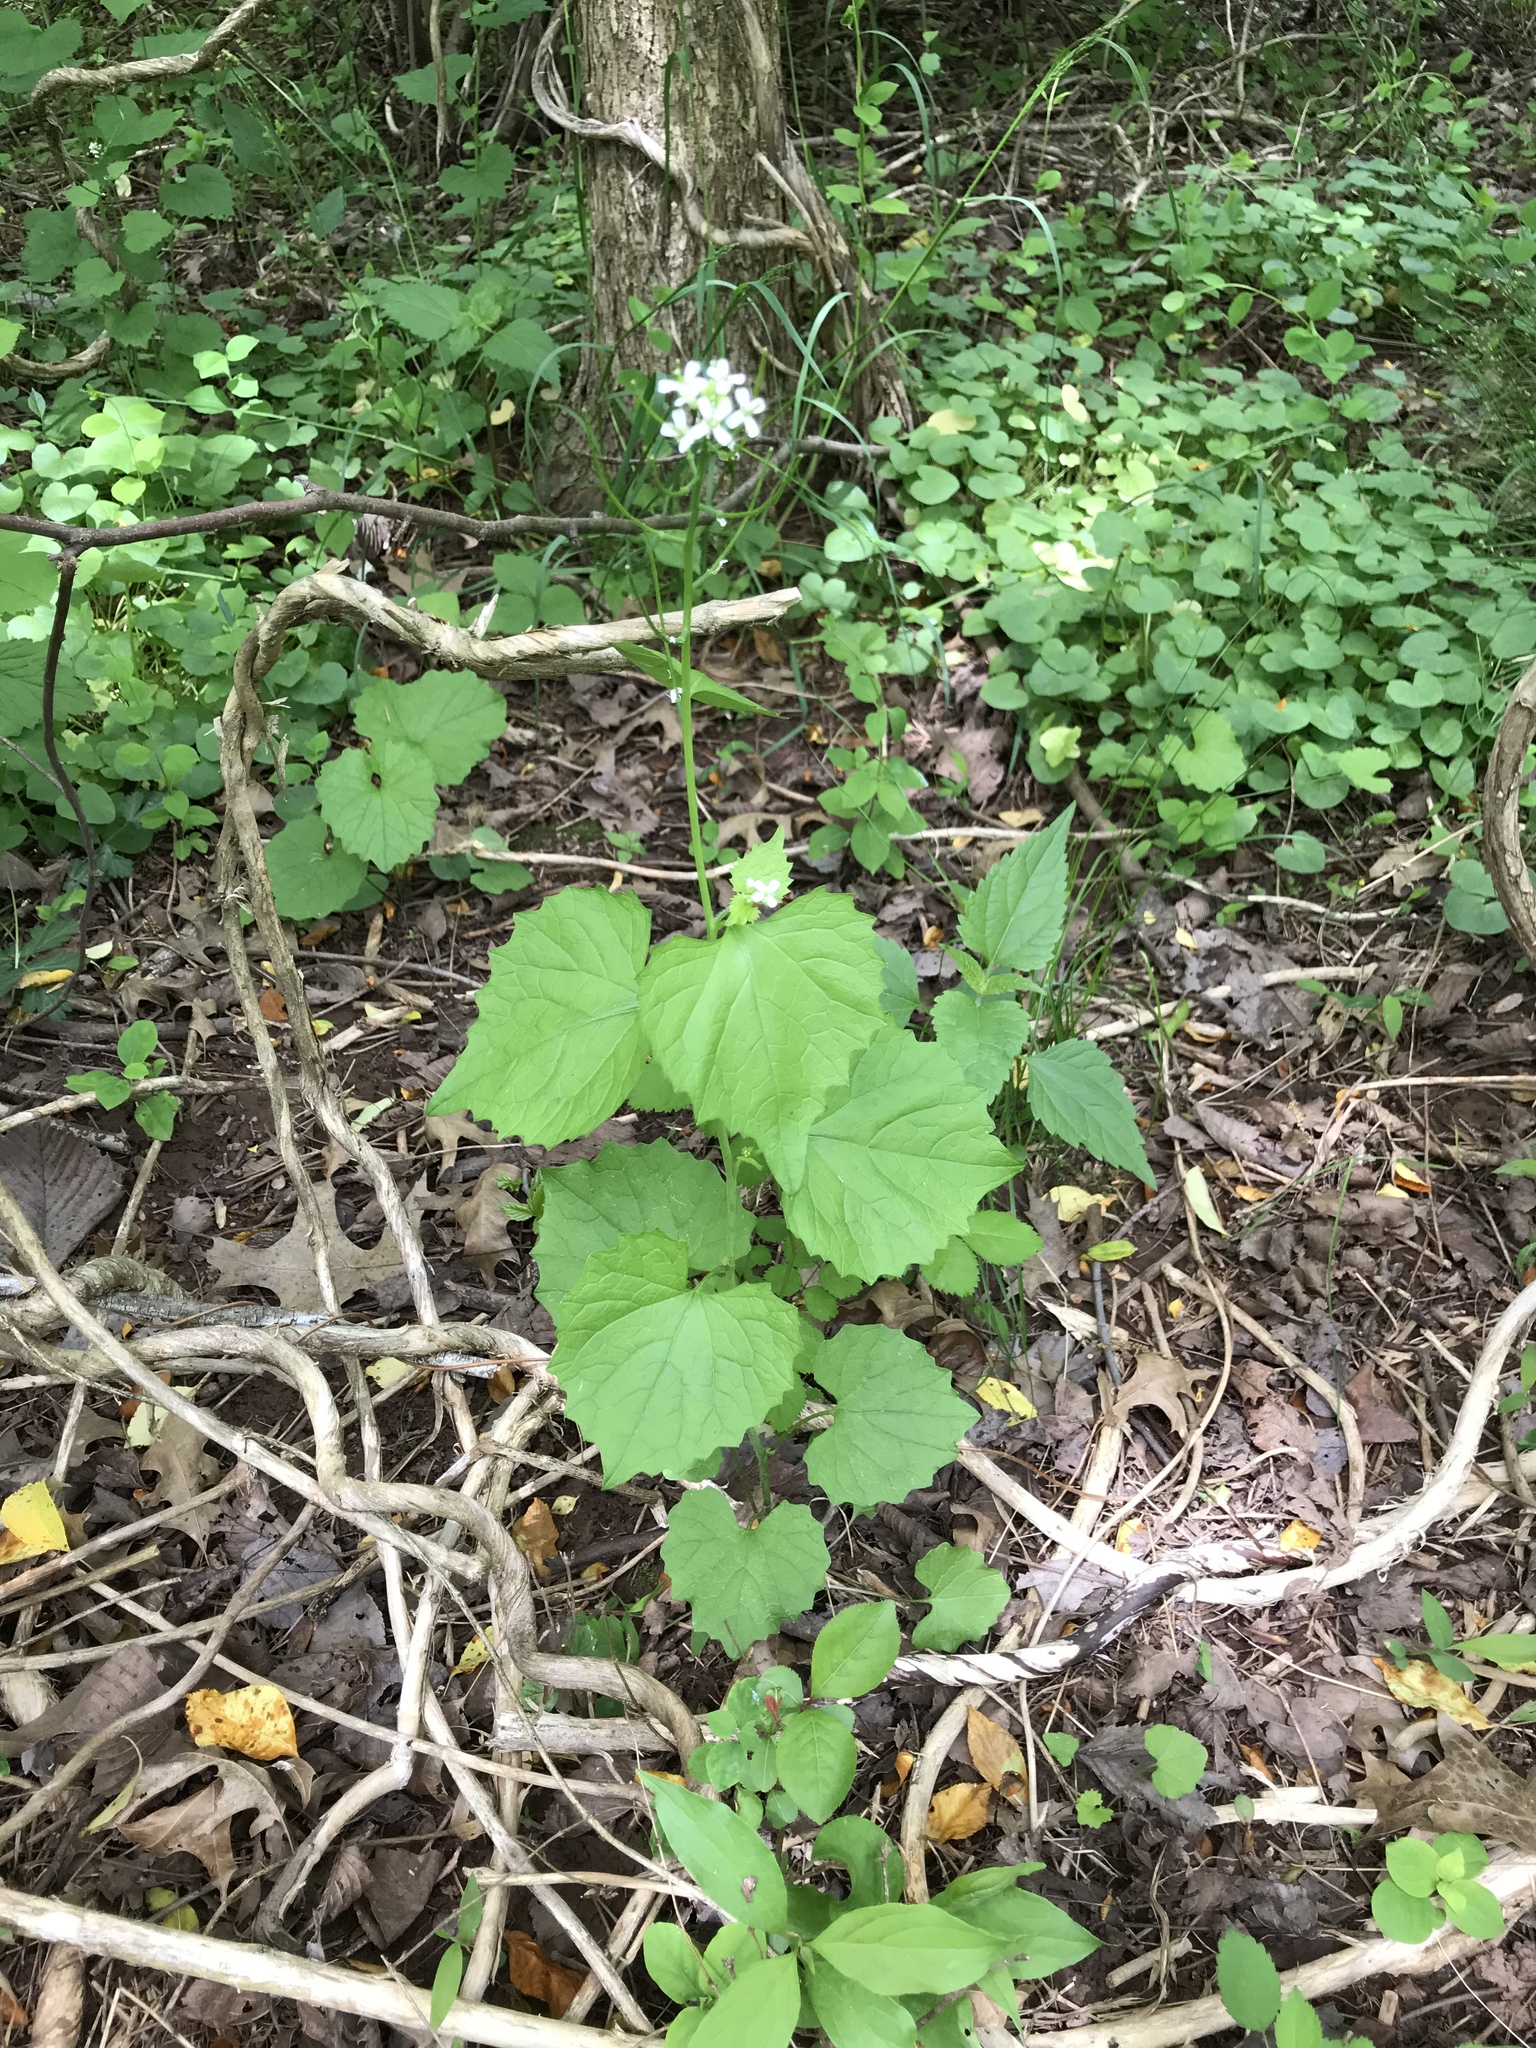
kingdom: Plantae
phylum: Tracheophyta
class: Magnoliopsida
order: Brassicales
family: Brassicaceae
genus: Alliaria
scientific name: Alliaria petiolata
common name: Garlic mustard
